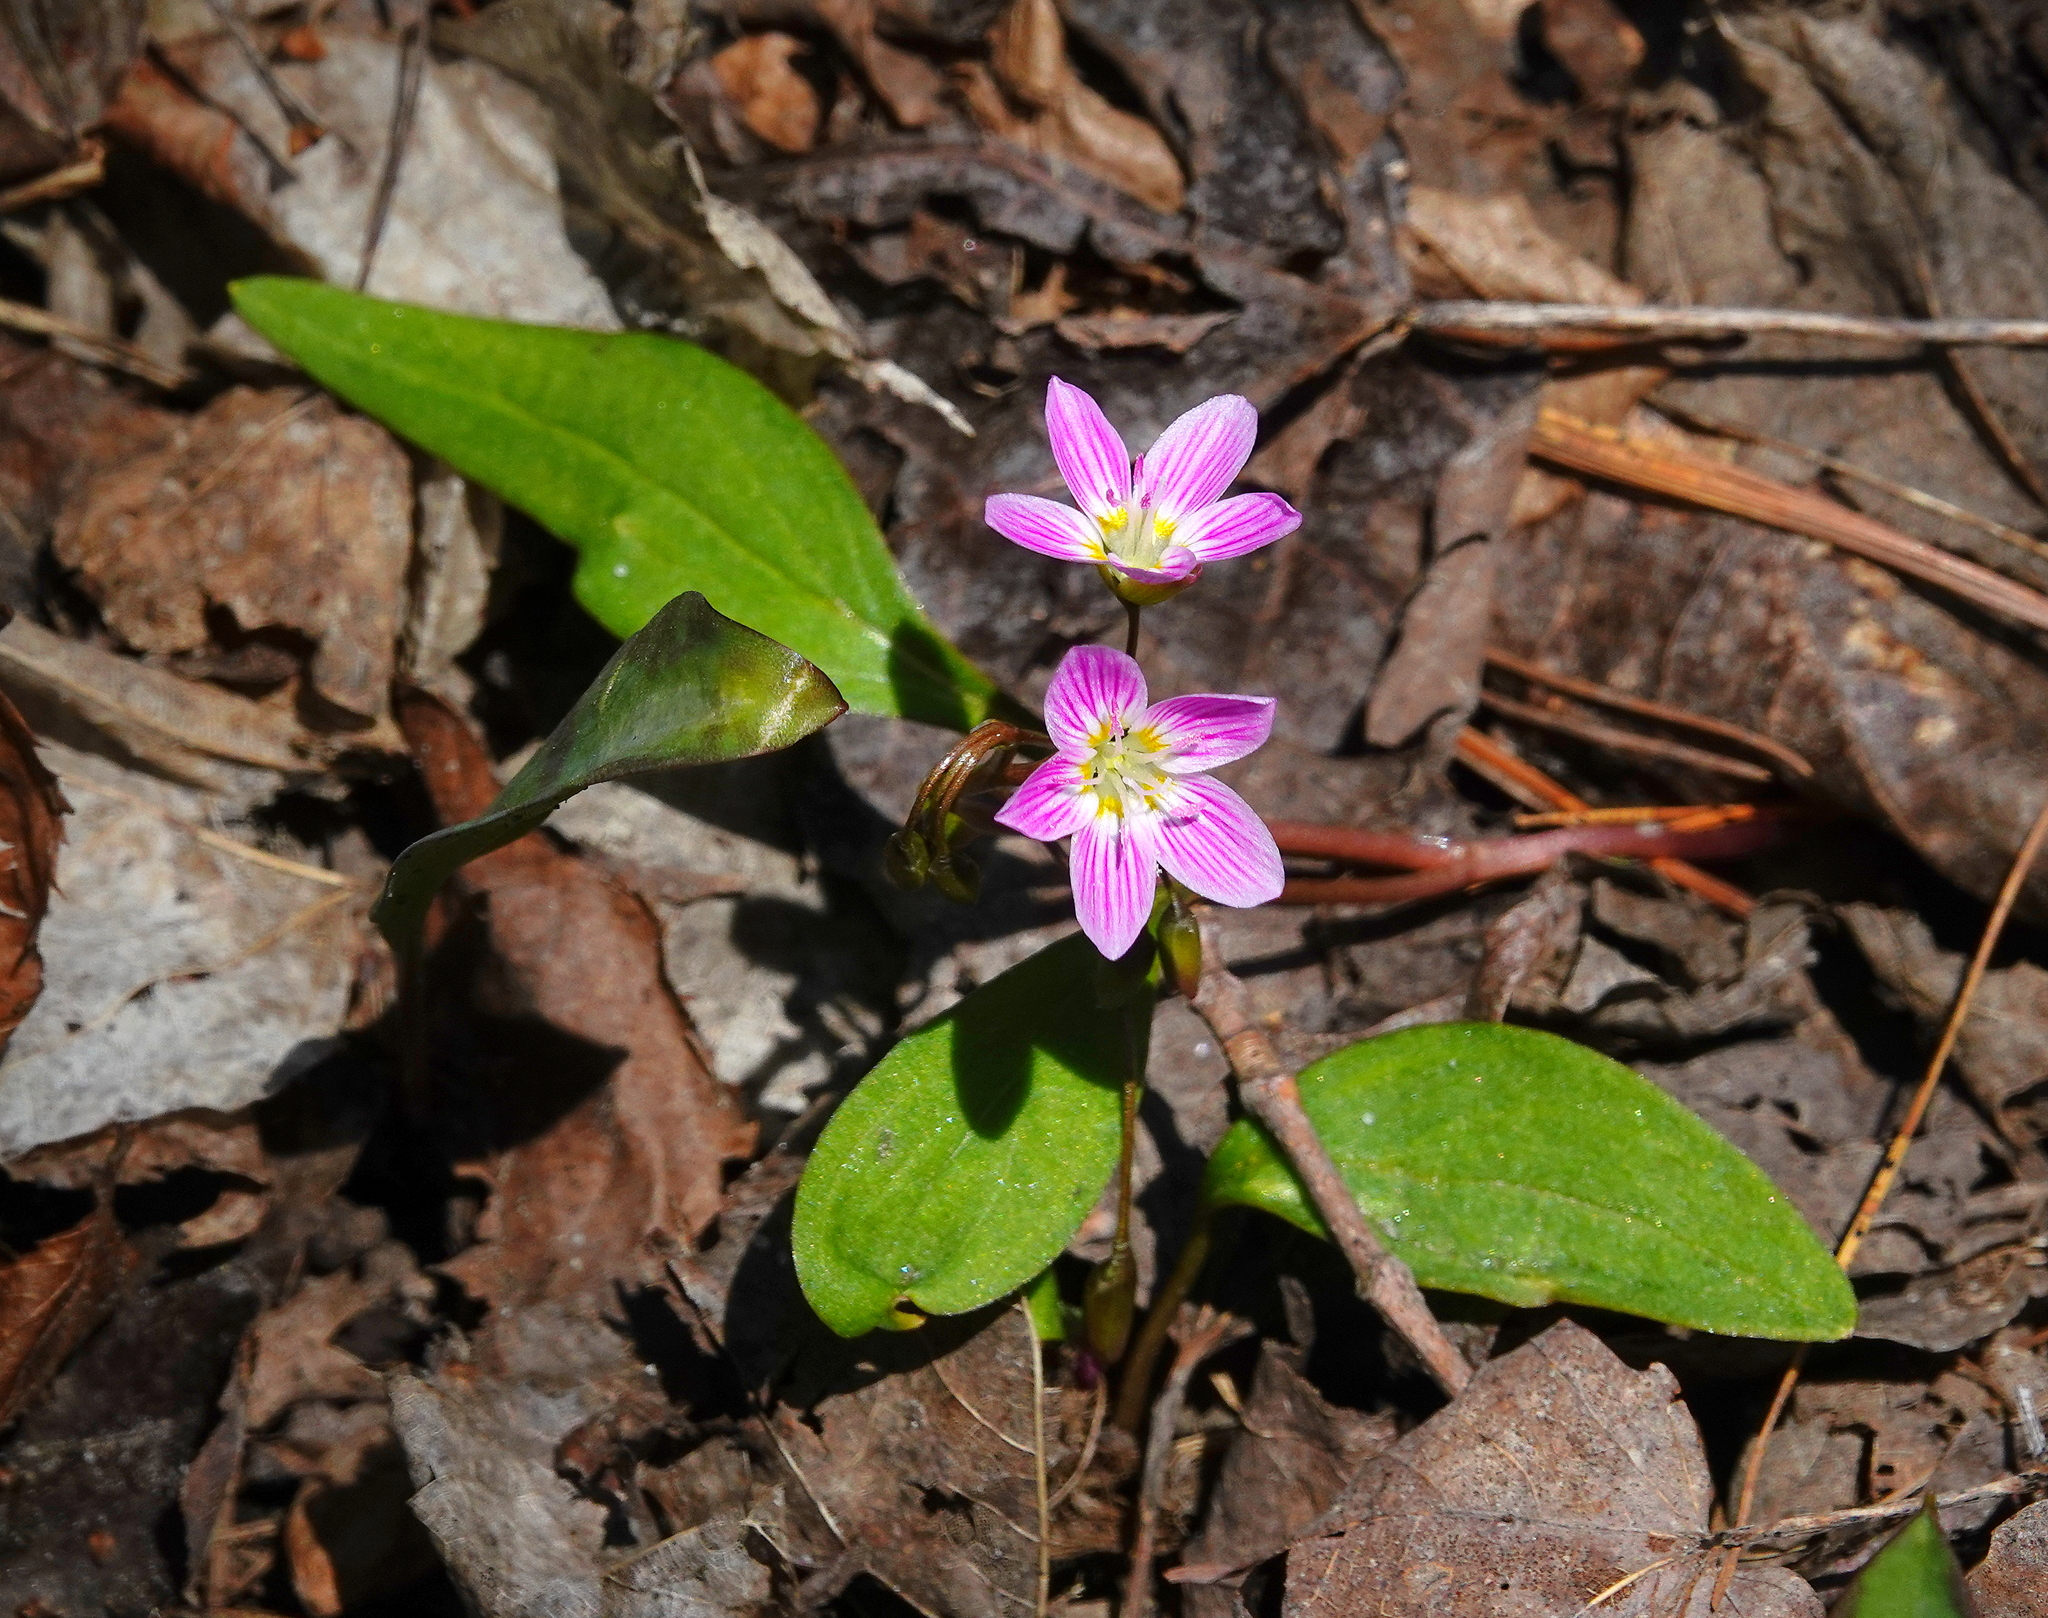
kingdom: Plantae
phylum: Tracheophyta
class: Magnoliopsida
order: Caryophyllales
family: Montiaceae
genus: Claytonia
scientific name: Claytonia caroliniana
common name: Carolina spring beauty
